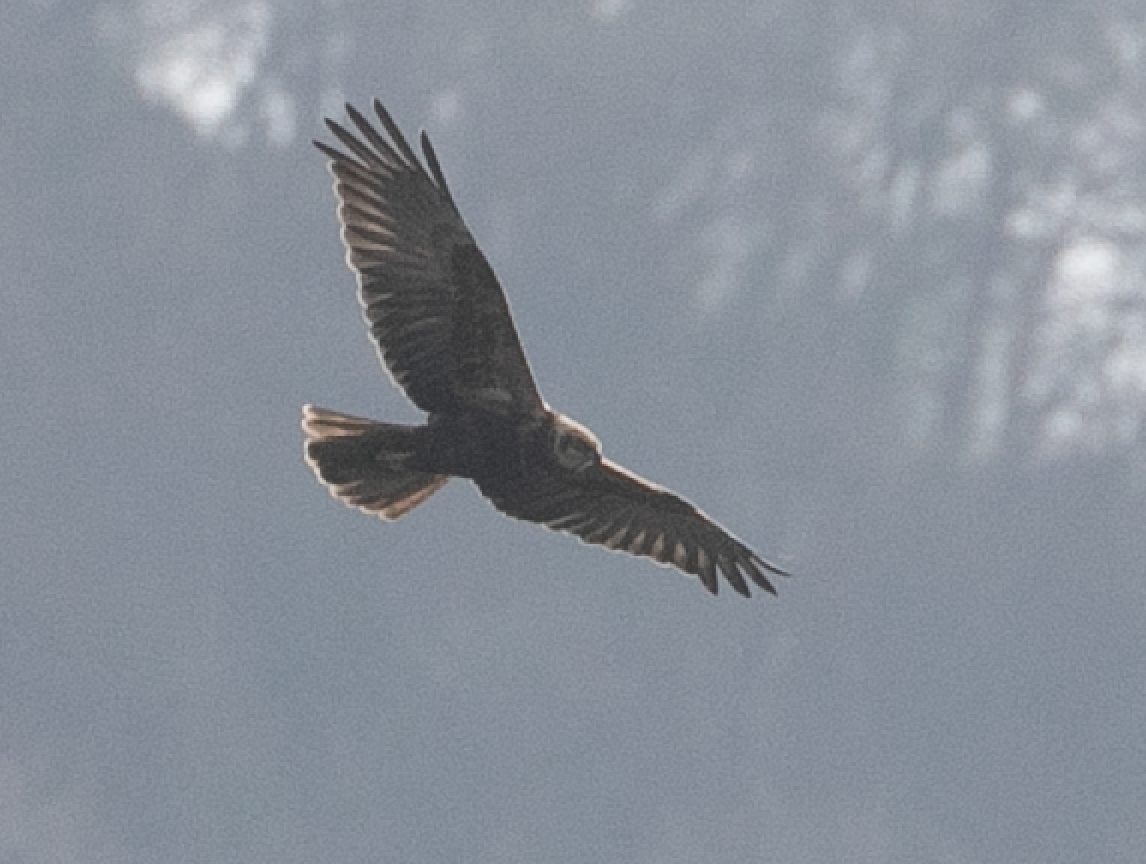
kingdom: Animalia
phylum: Chordata
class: Aves
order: Accipitriformes
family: Accipitridae
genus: Circus
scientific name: Circus aeruginosus
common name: Western marsh harrier
